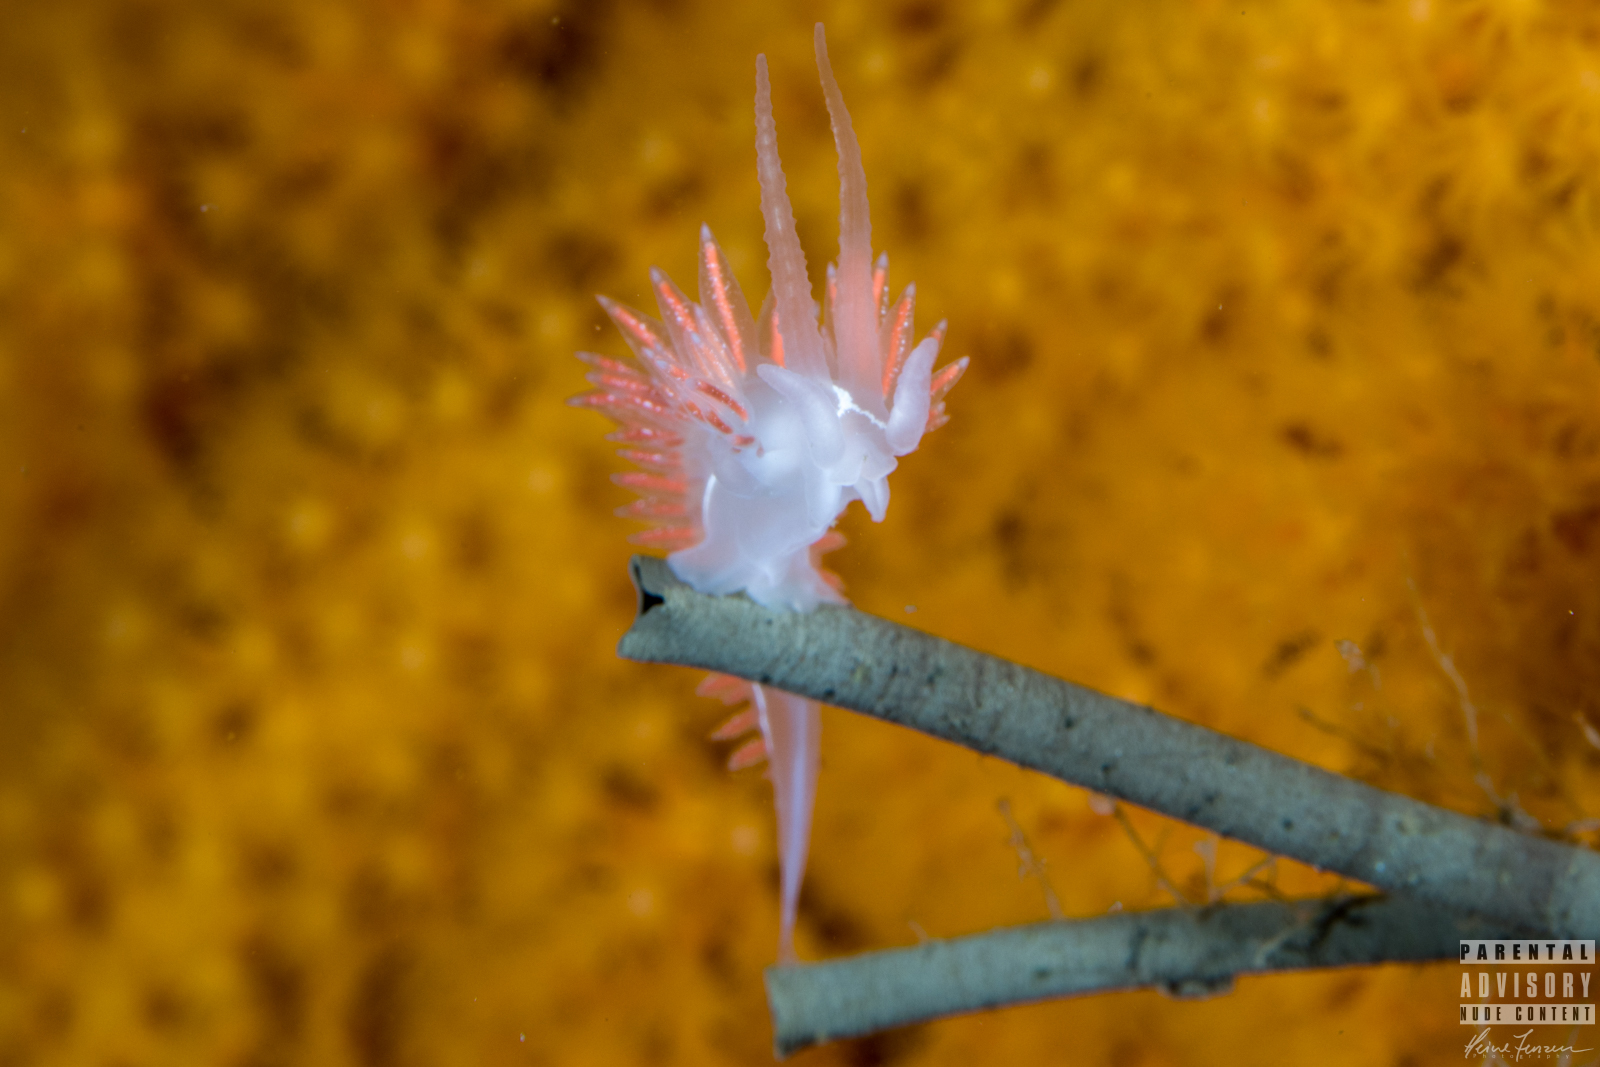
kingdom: Animalia
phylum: Mollusca
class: Gastropoda
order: Nudibranchia
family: Coryphellidae
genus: Coryphella
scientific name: Coryphella chriskaugei
